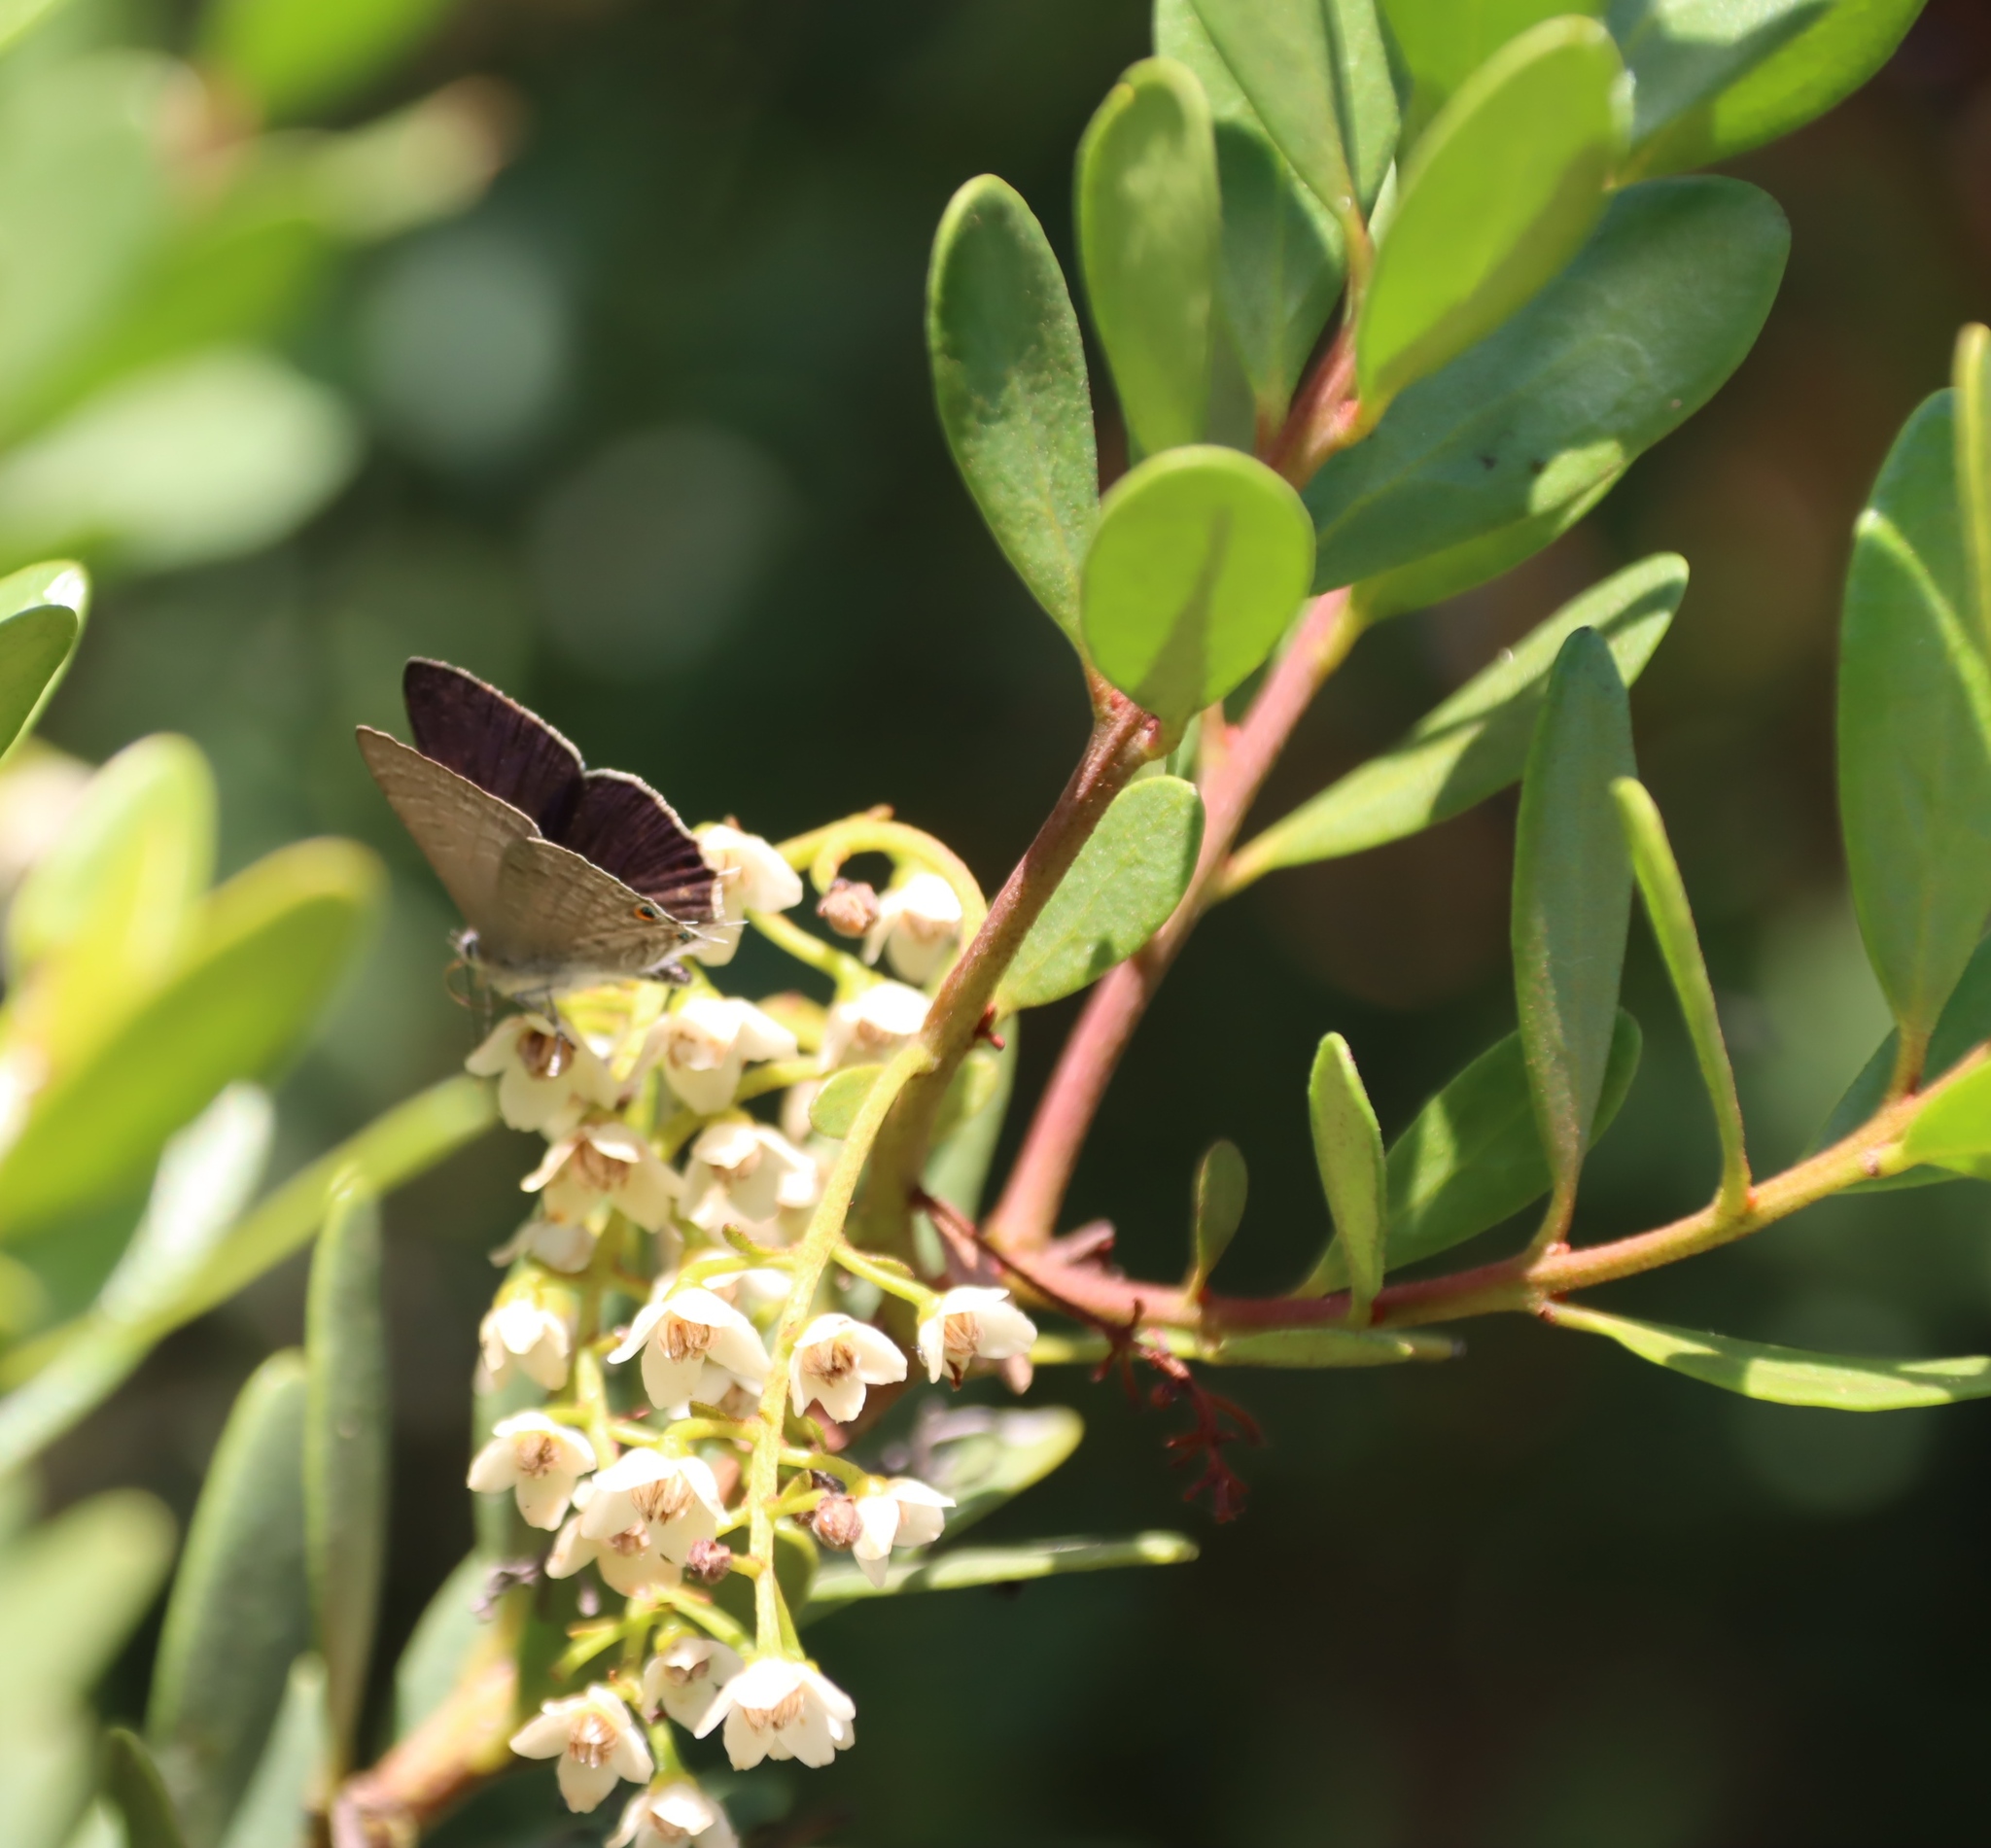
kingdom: Plantae
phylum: Tracheophyta
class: Magnoliopsida
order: Ericales
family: Ebenaceae
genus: Euclea
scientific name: Euclea racemosa
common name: Dune guarri
